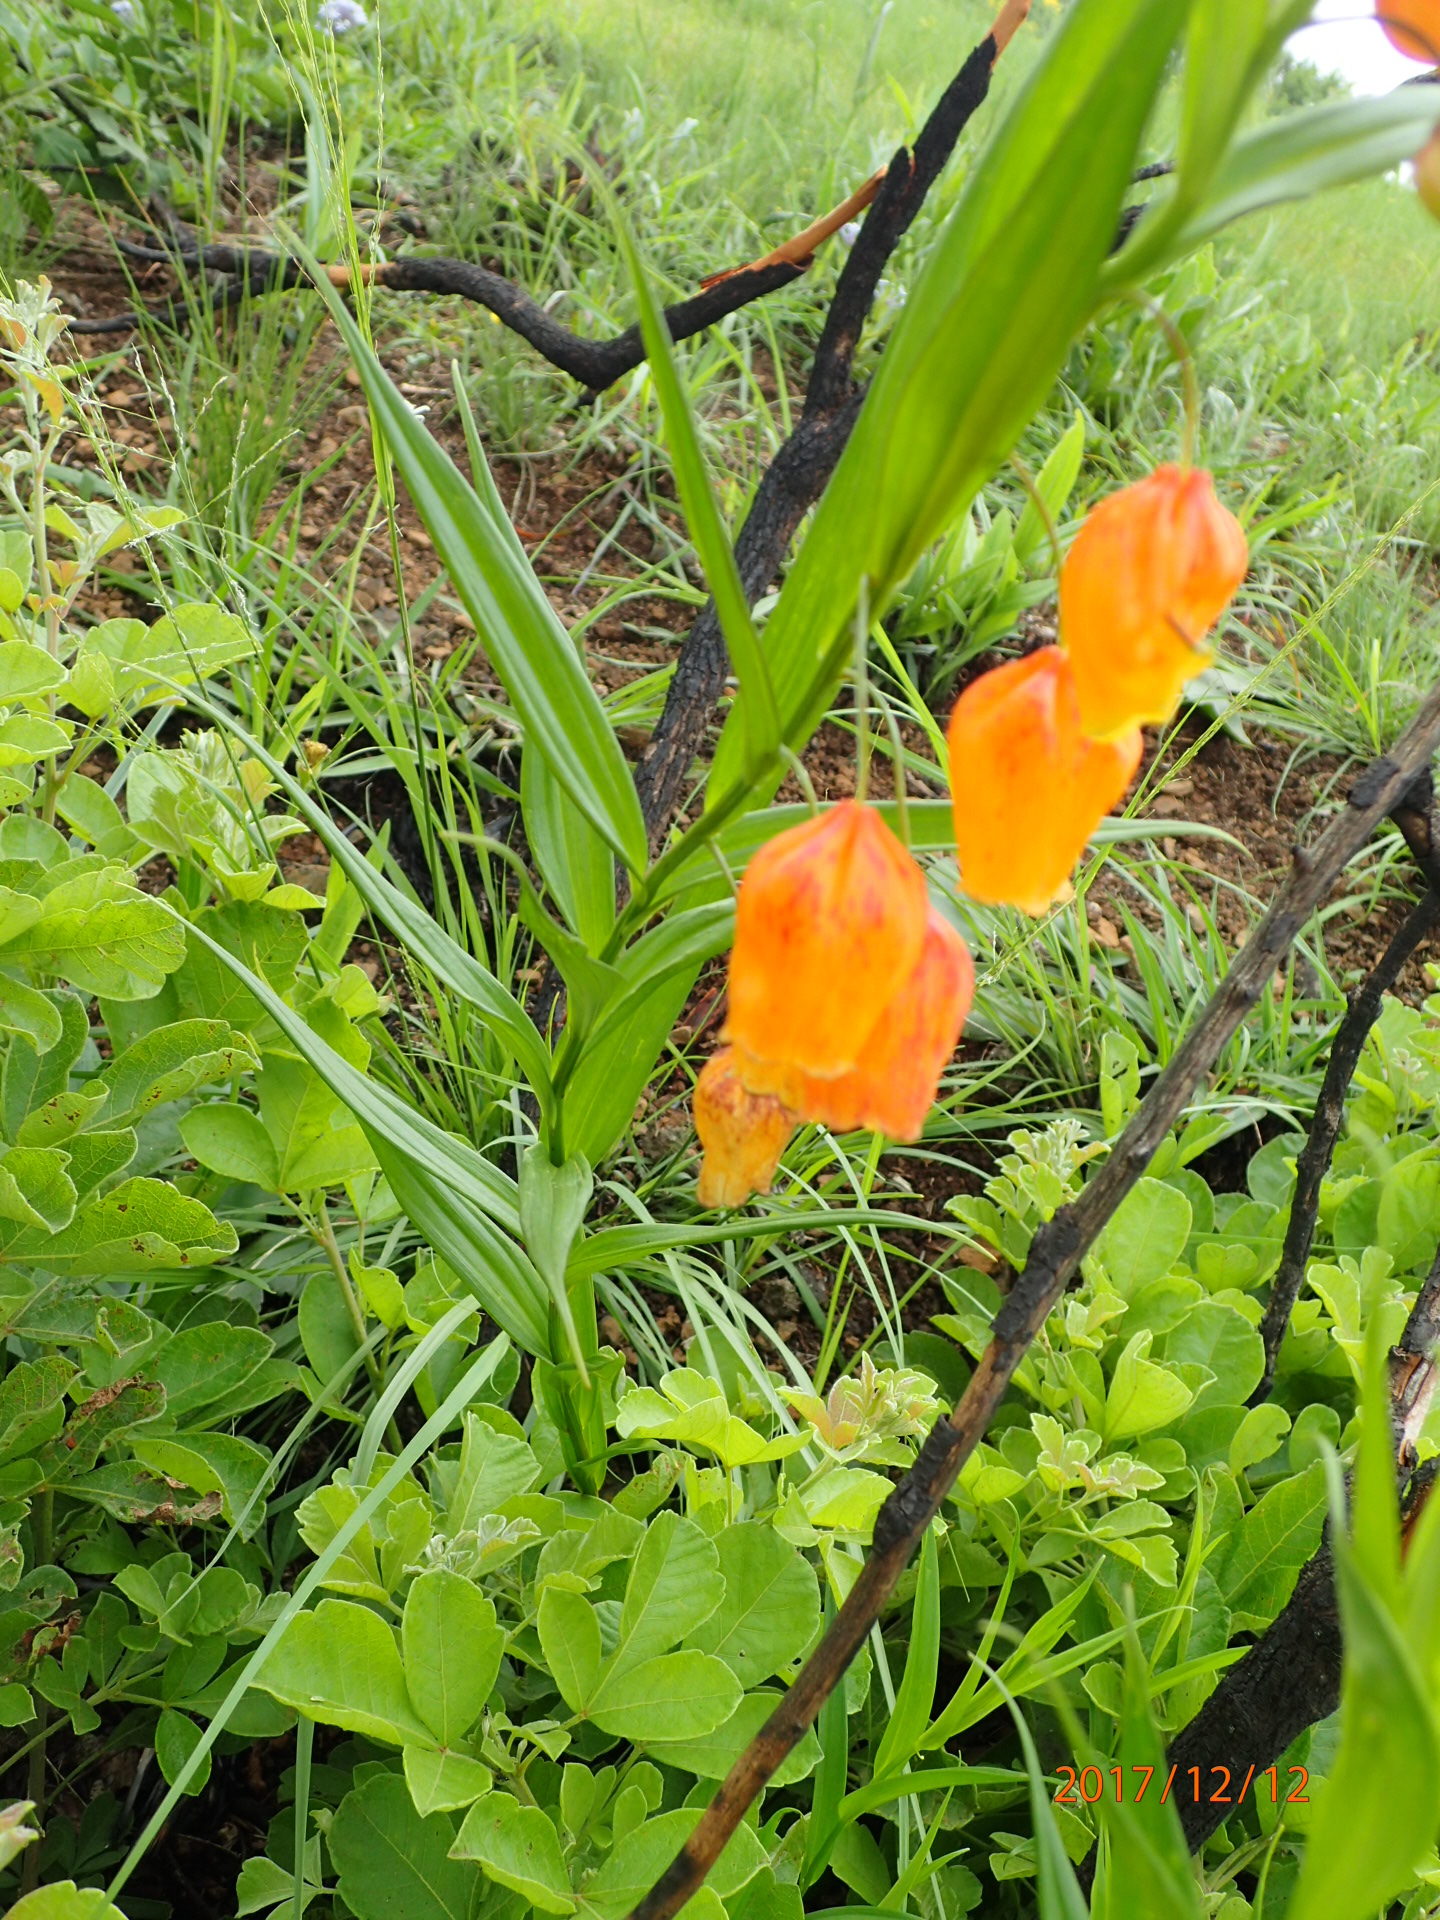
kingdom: Plantae
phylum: Tracheophyta
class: Liliopsida
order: Liliales
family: Colchicaceae
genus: Sandersonia
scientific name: Sandersonia aurantiaca
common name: Chinese-lantern-lily
